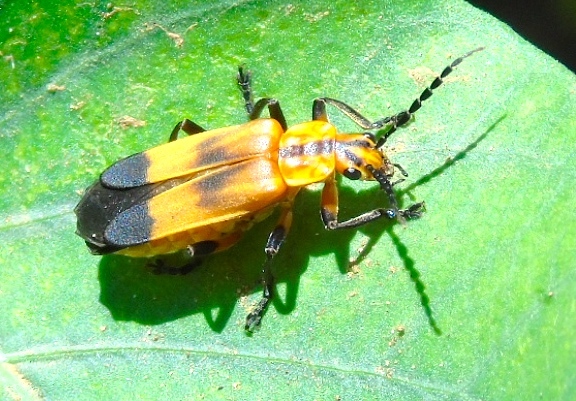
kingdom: Animalia
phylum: Arthropoda
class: Insecta
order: Coleoptera
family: Cantharidae
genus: Daiphron
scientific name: Daiphron proteum
